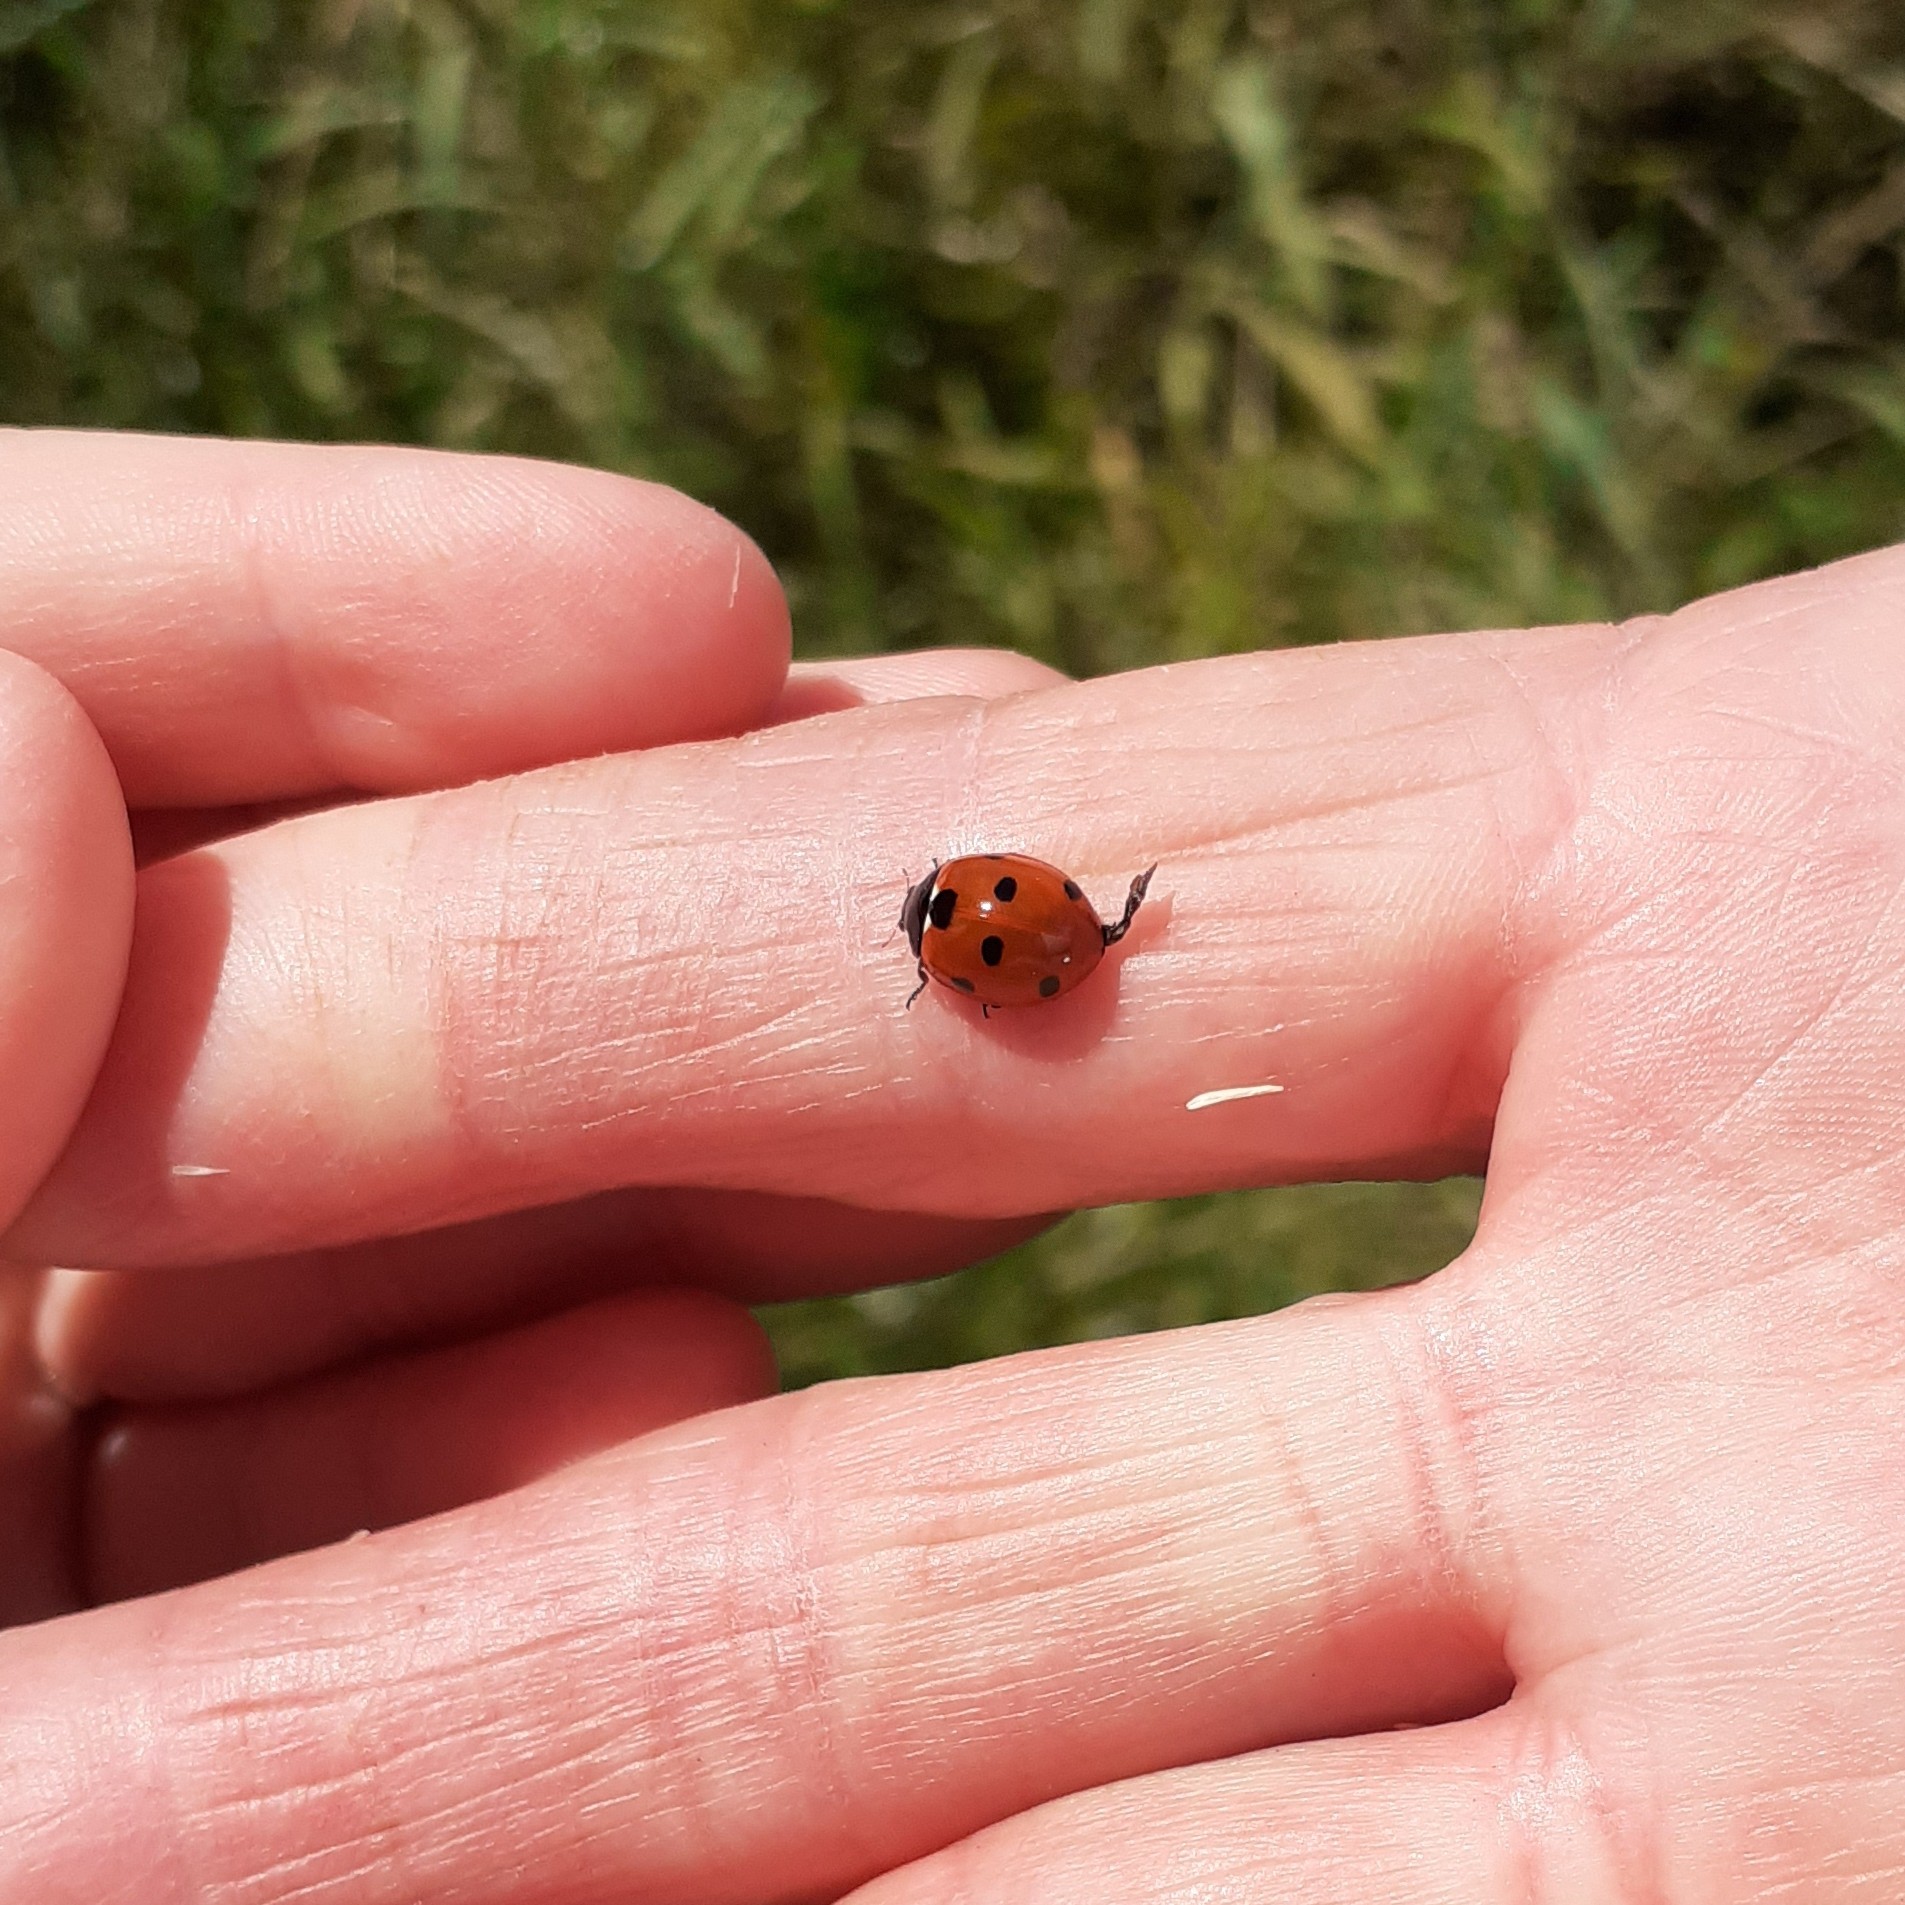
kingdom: Animalia
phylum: Arthropoda
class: Insecta
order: Coleoptera
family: Coccinellidae
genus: Coccinella
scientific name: Coccinella septempunctata
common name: Sevenspotted lady beetle
